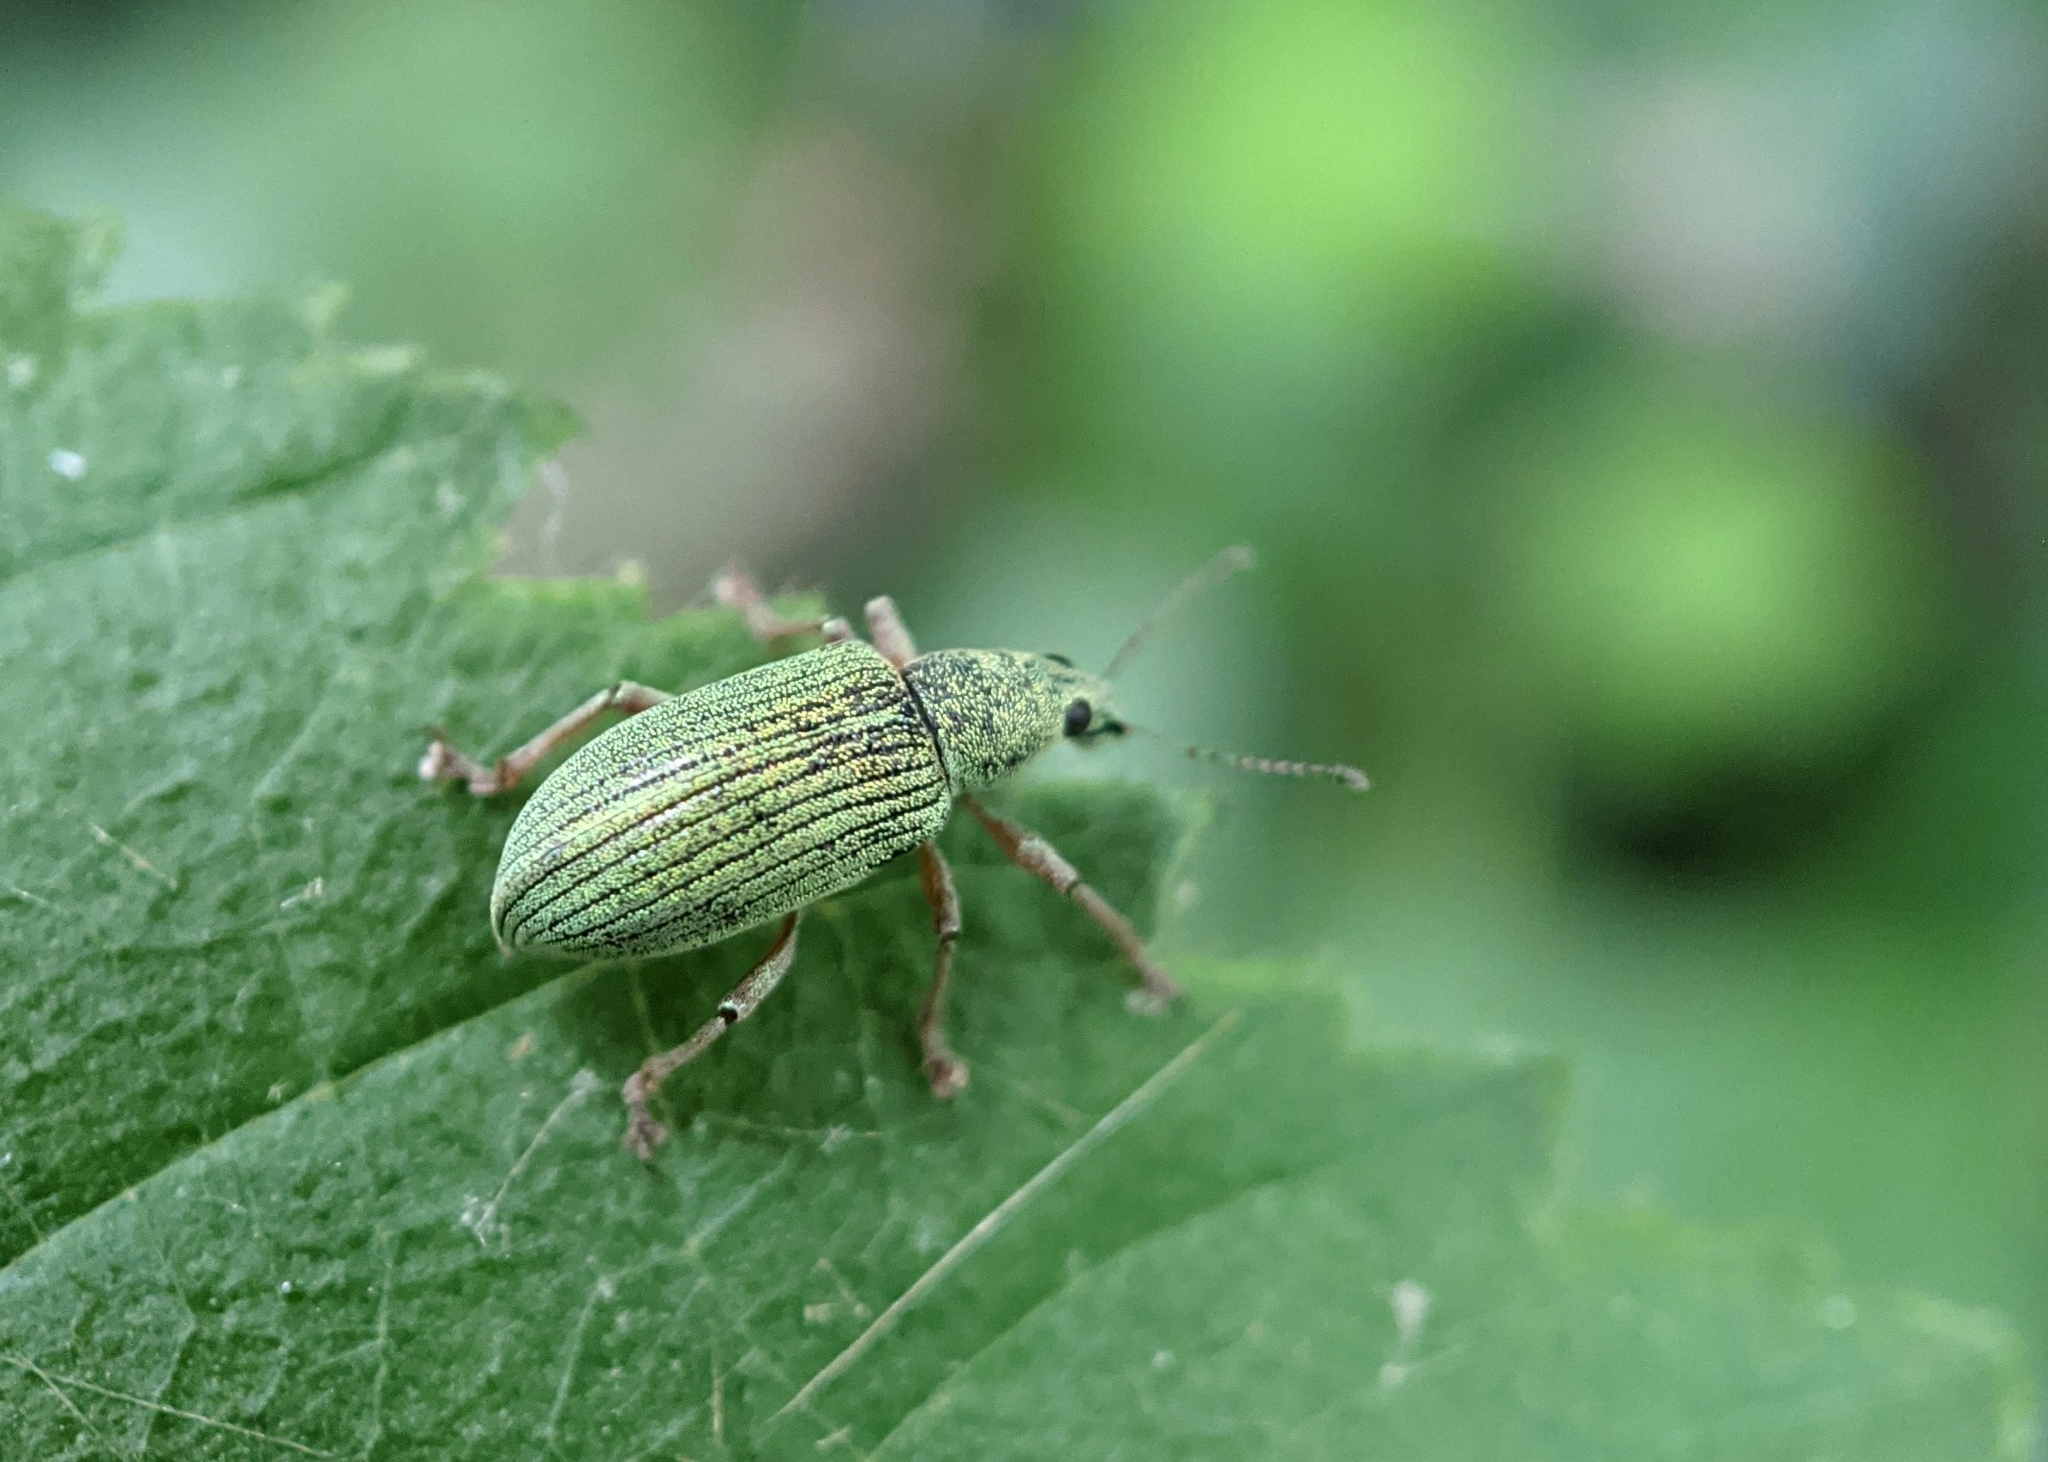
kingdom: Animalia
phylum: Arthropoda
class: Insecta
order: Coleoptera
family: Curculionidae
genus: Polydrusus
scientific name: Polydrusus formosus
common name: Weevil
